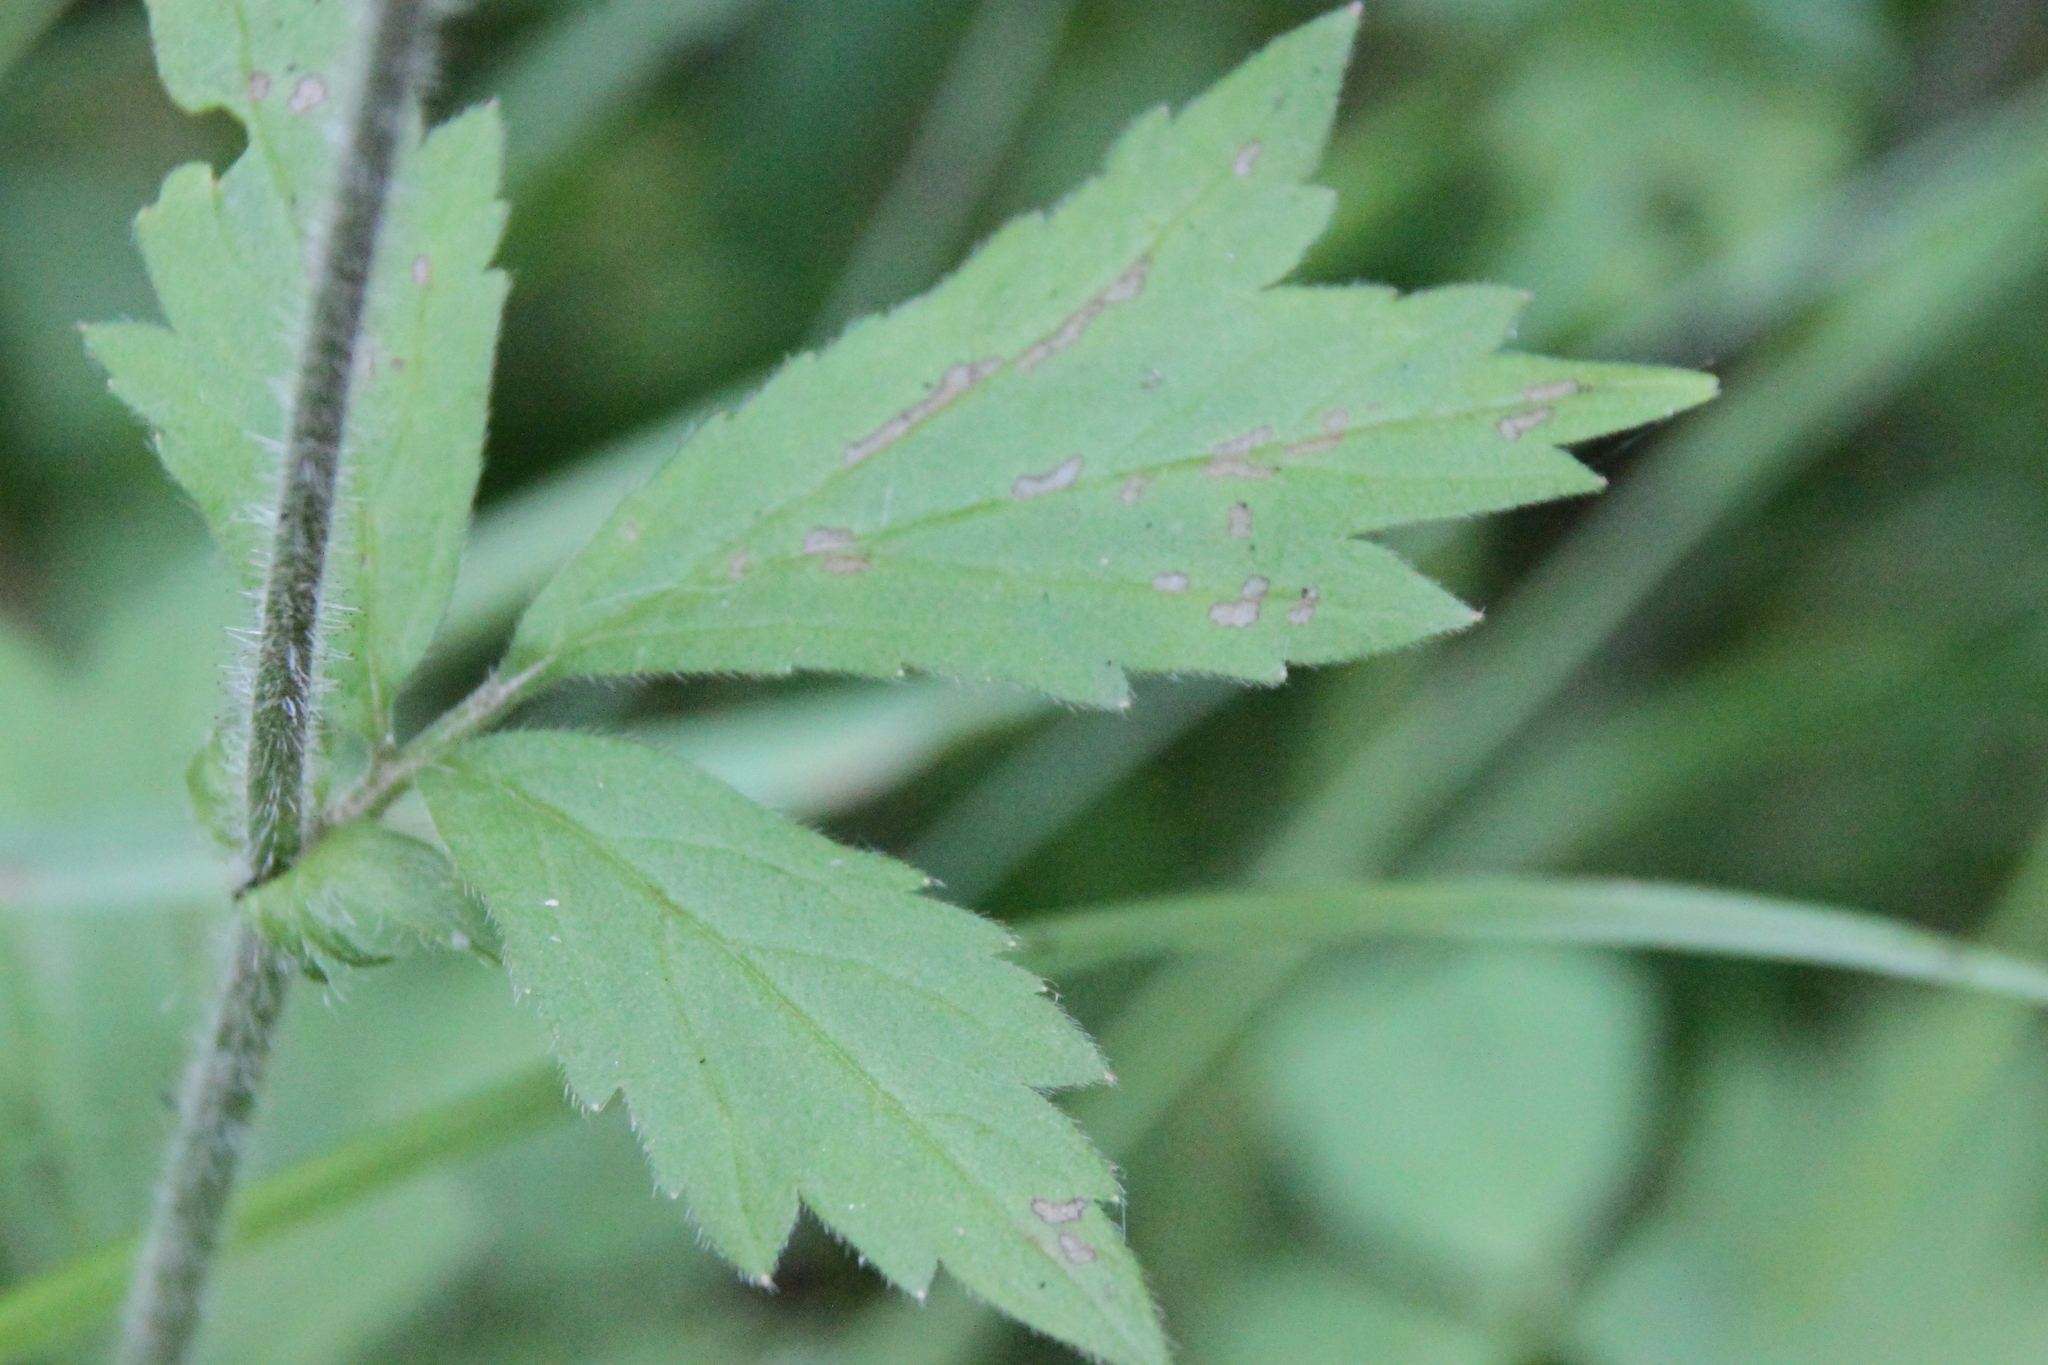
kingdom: Plantae
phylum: Tracheophyta
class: Magnoliopsida
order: Rosales
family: Rosaceae
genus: Geum
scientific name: Geum rivale
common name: Water avens
